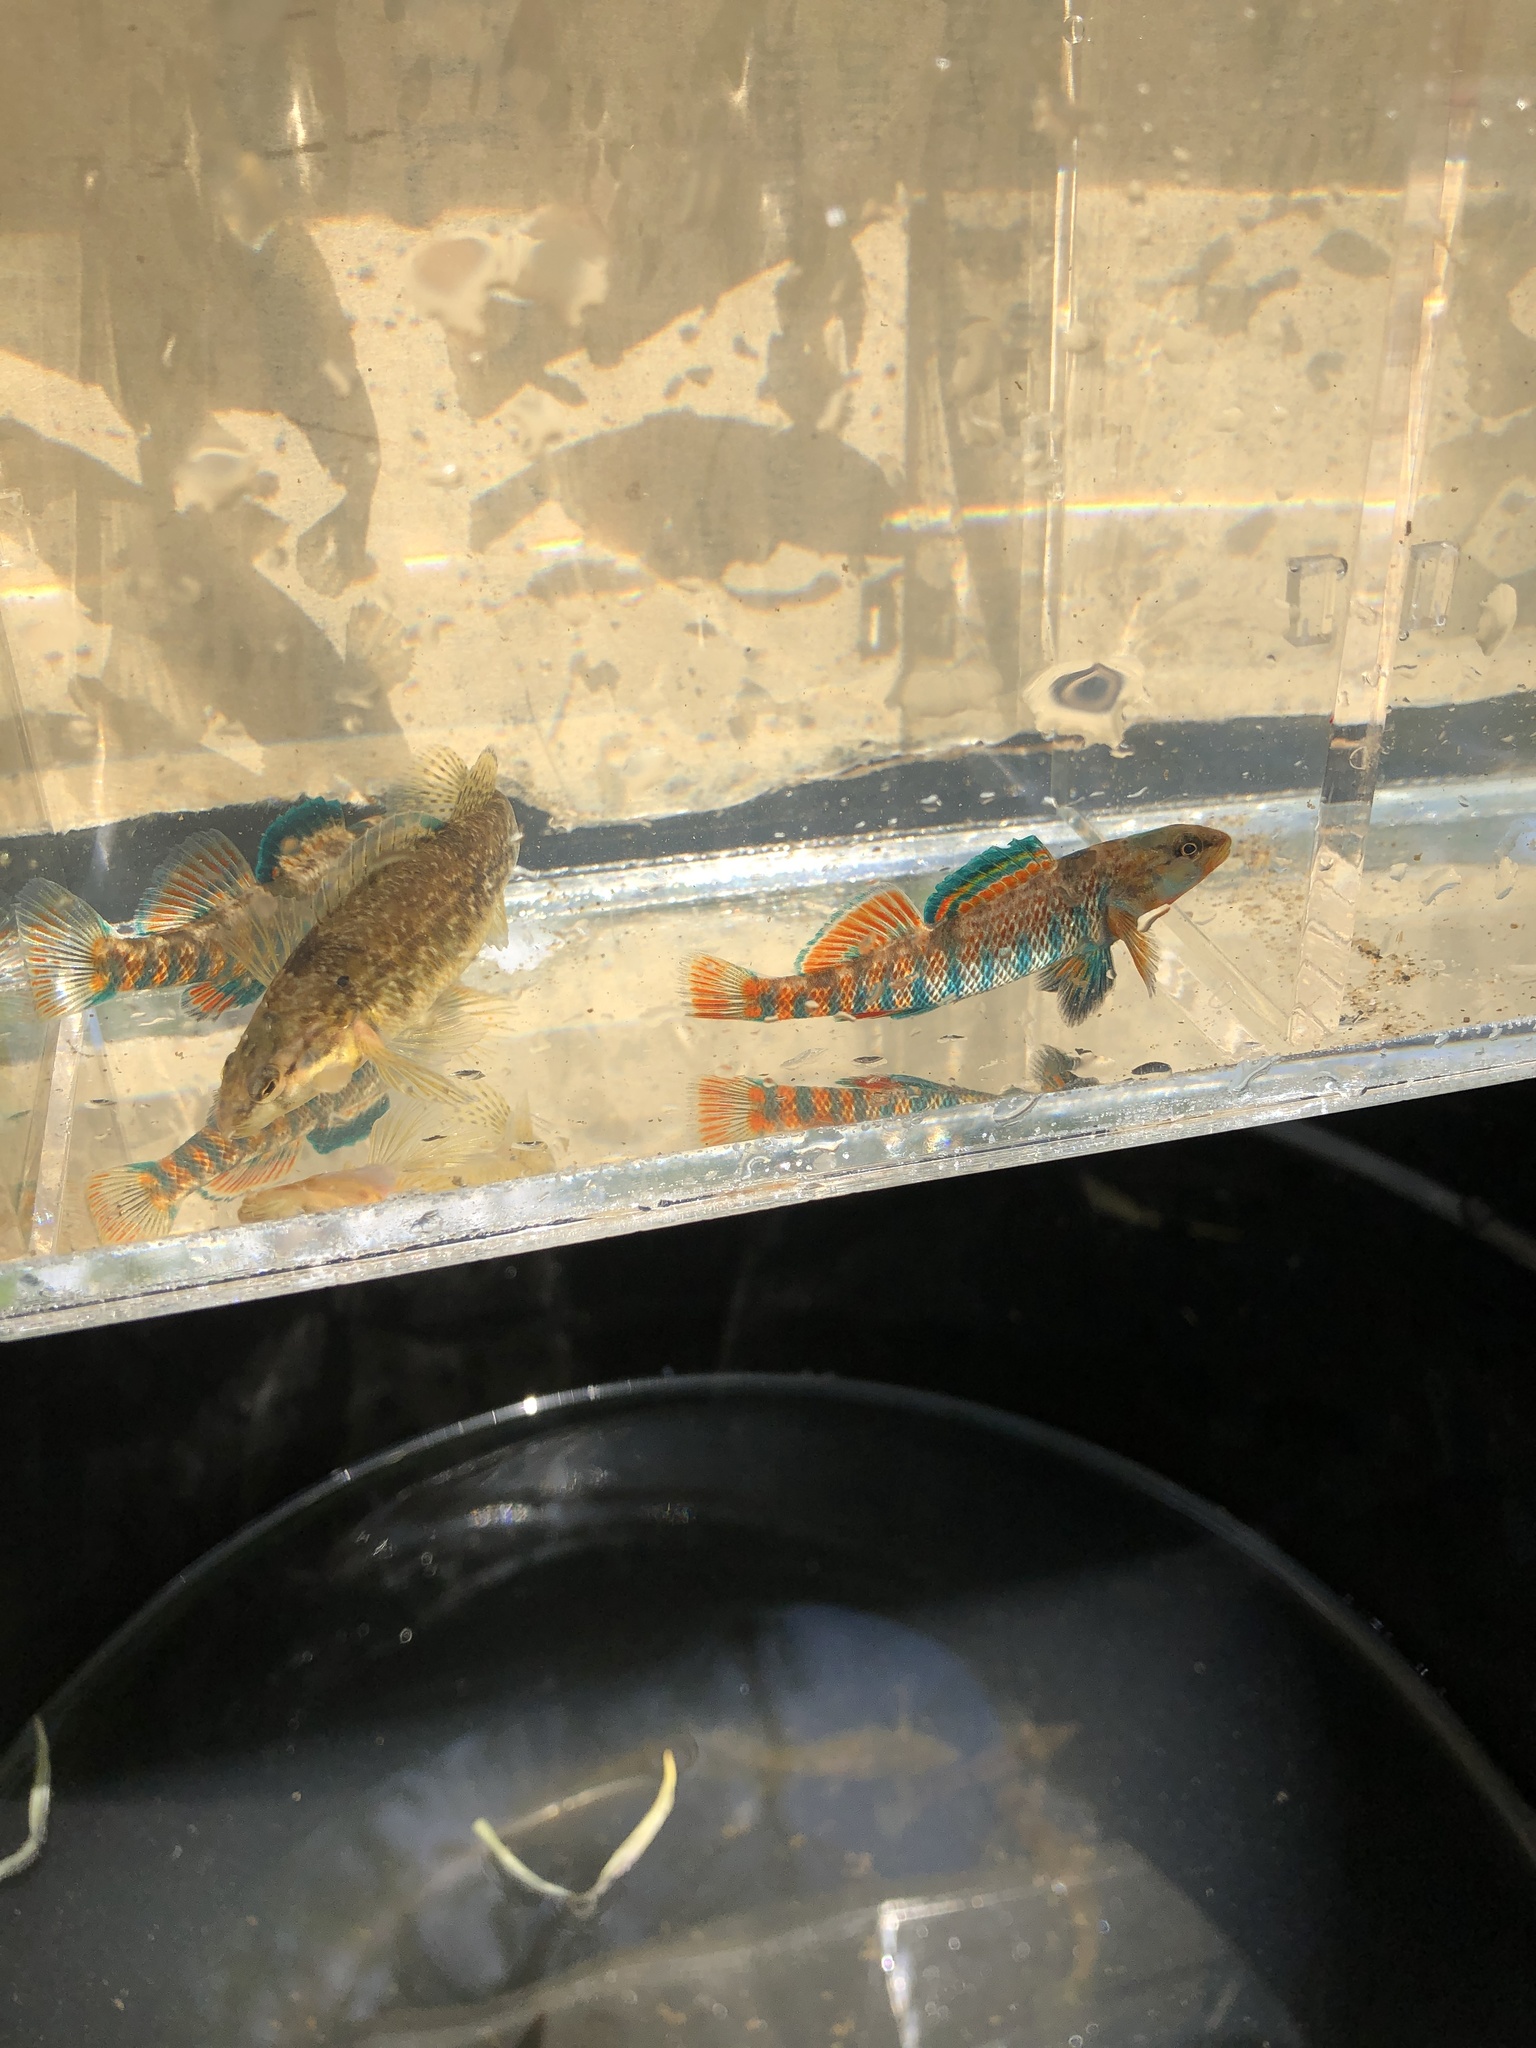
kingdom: Animalia
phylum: Chordata
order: Perciformes
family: Percidae
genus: Etheostoma
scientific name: Etheostoma caeruleum
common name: Rainbow darter
